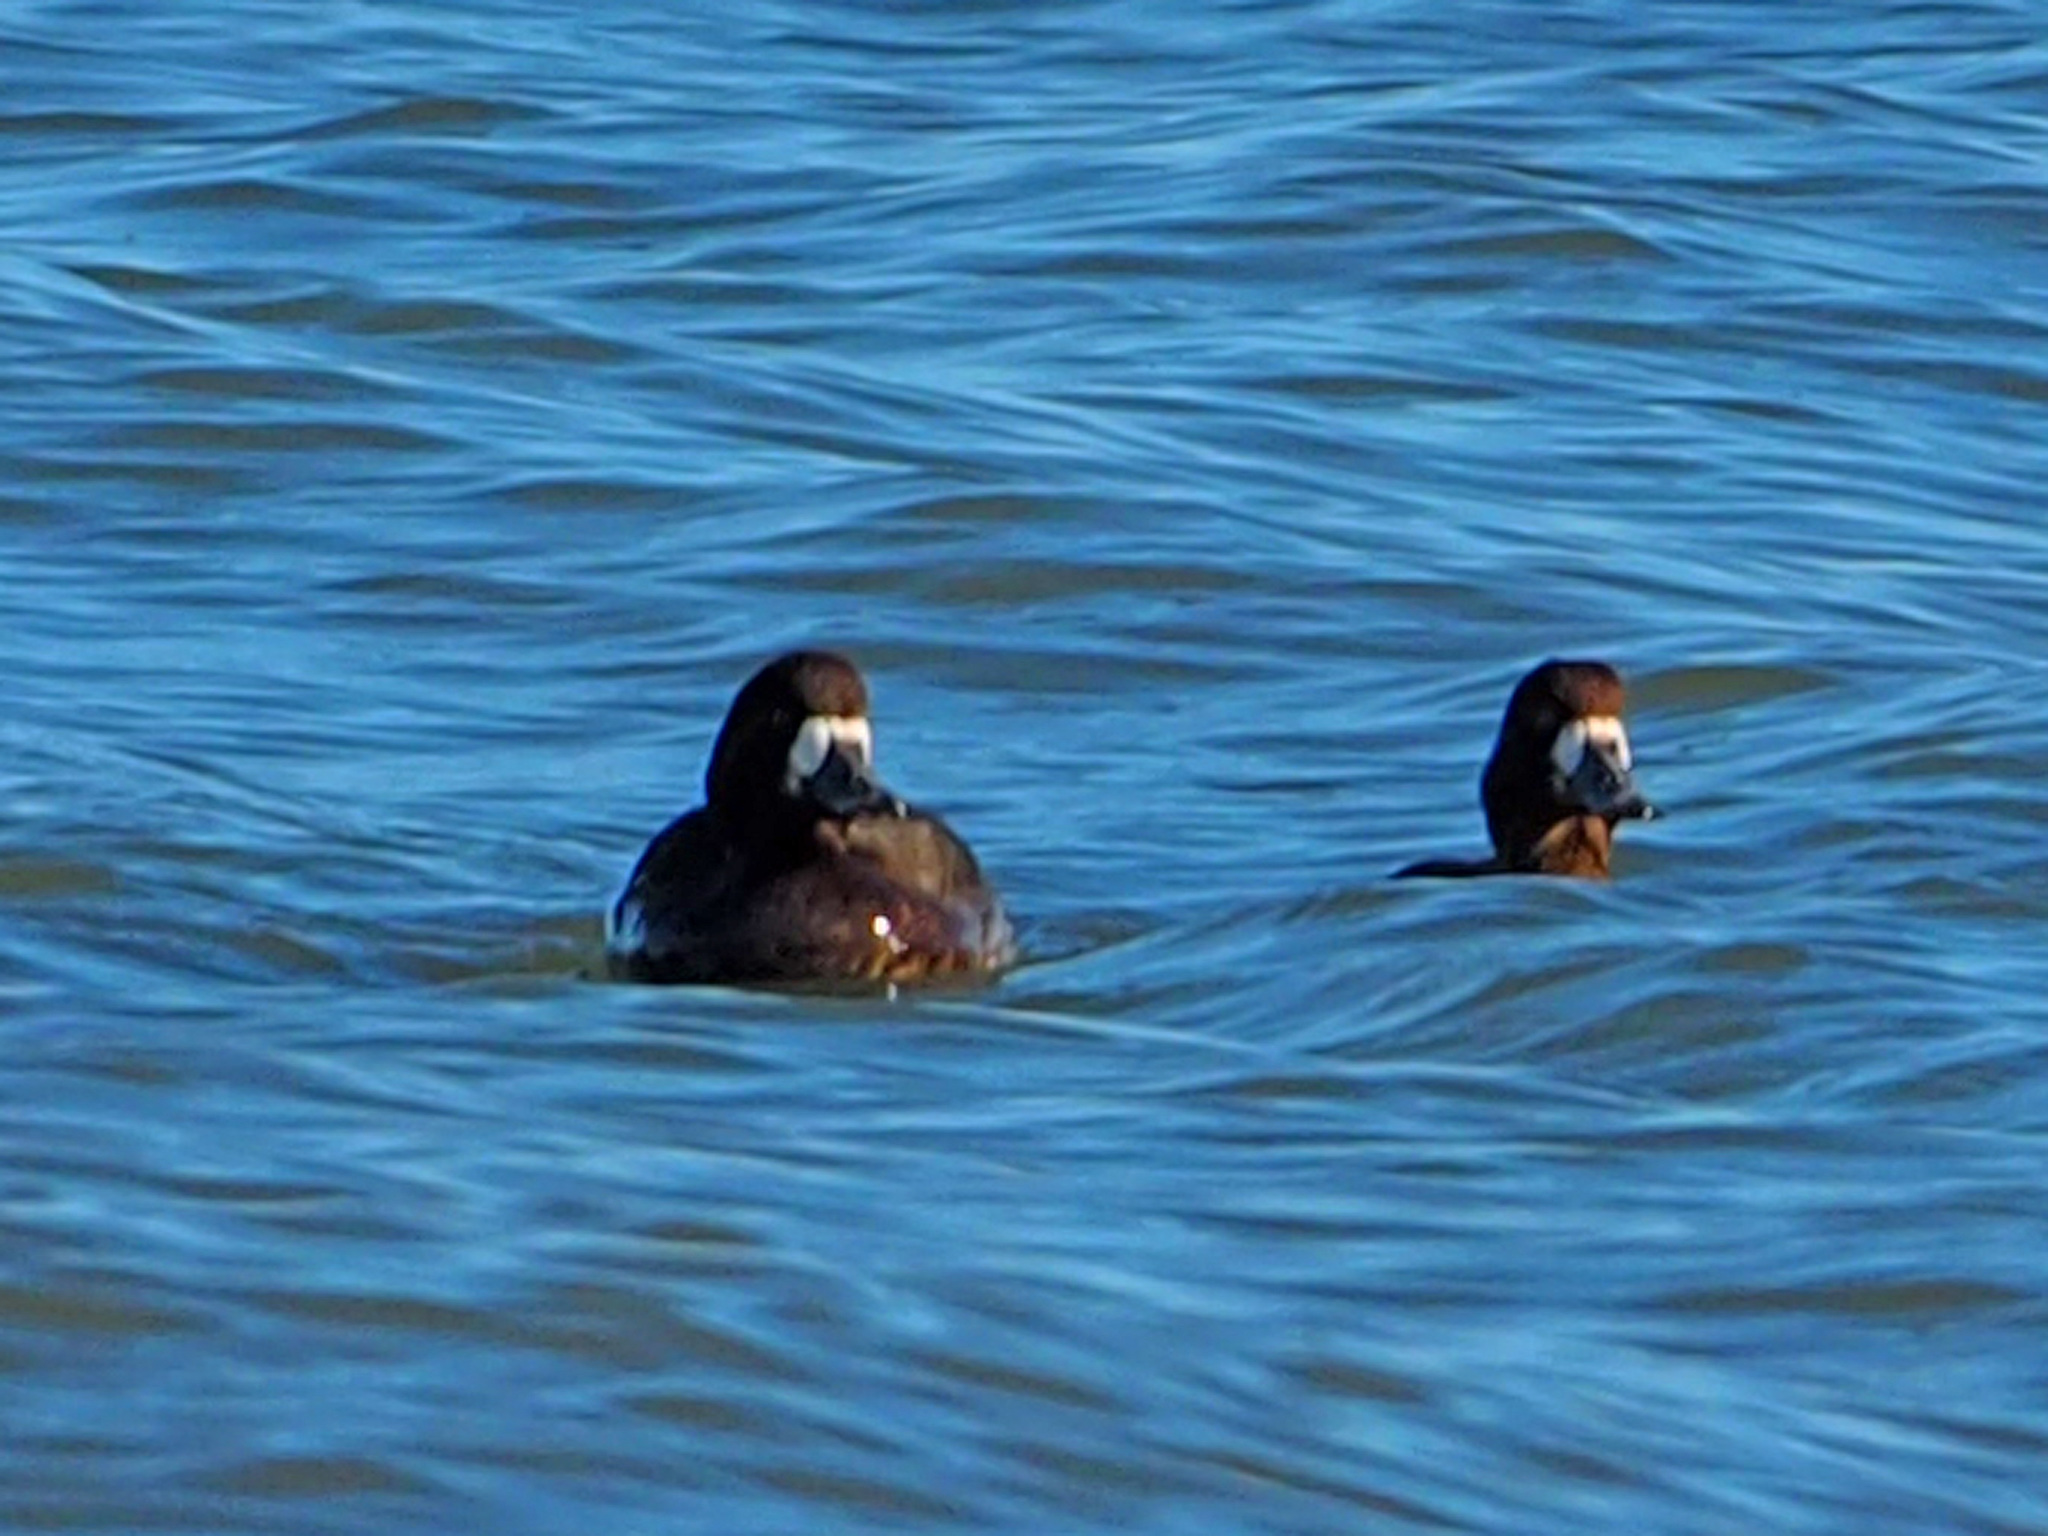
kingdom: Animalia
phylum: Chordata
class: Aves
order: Anseriformes
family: Anatidae
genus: Aythya
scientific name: Aythya marila
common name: Greater scaup
